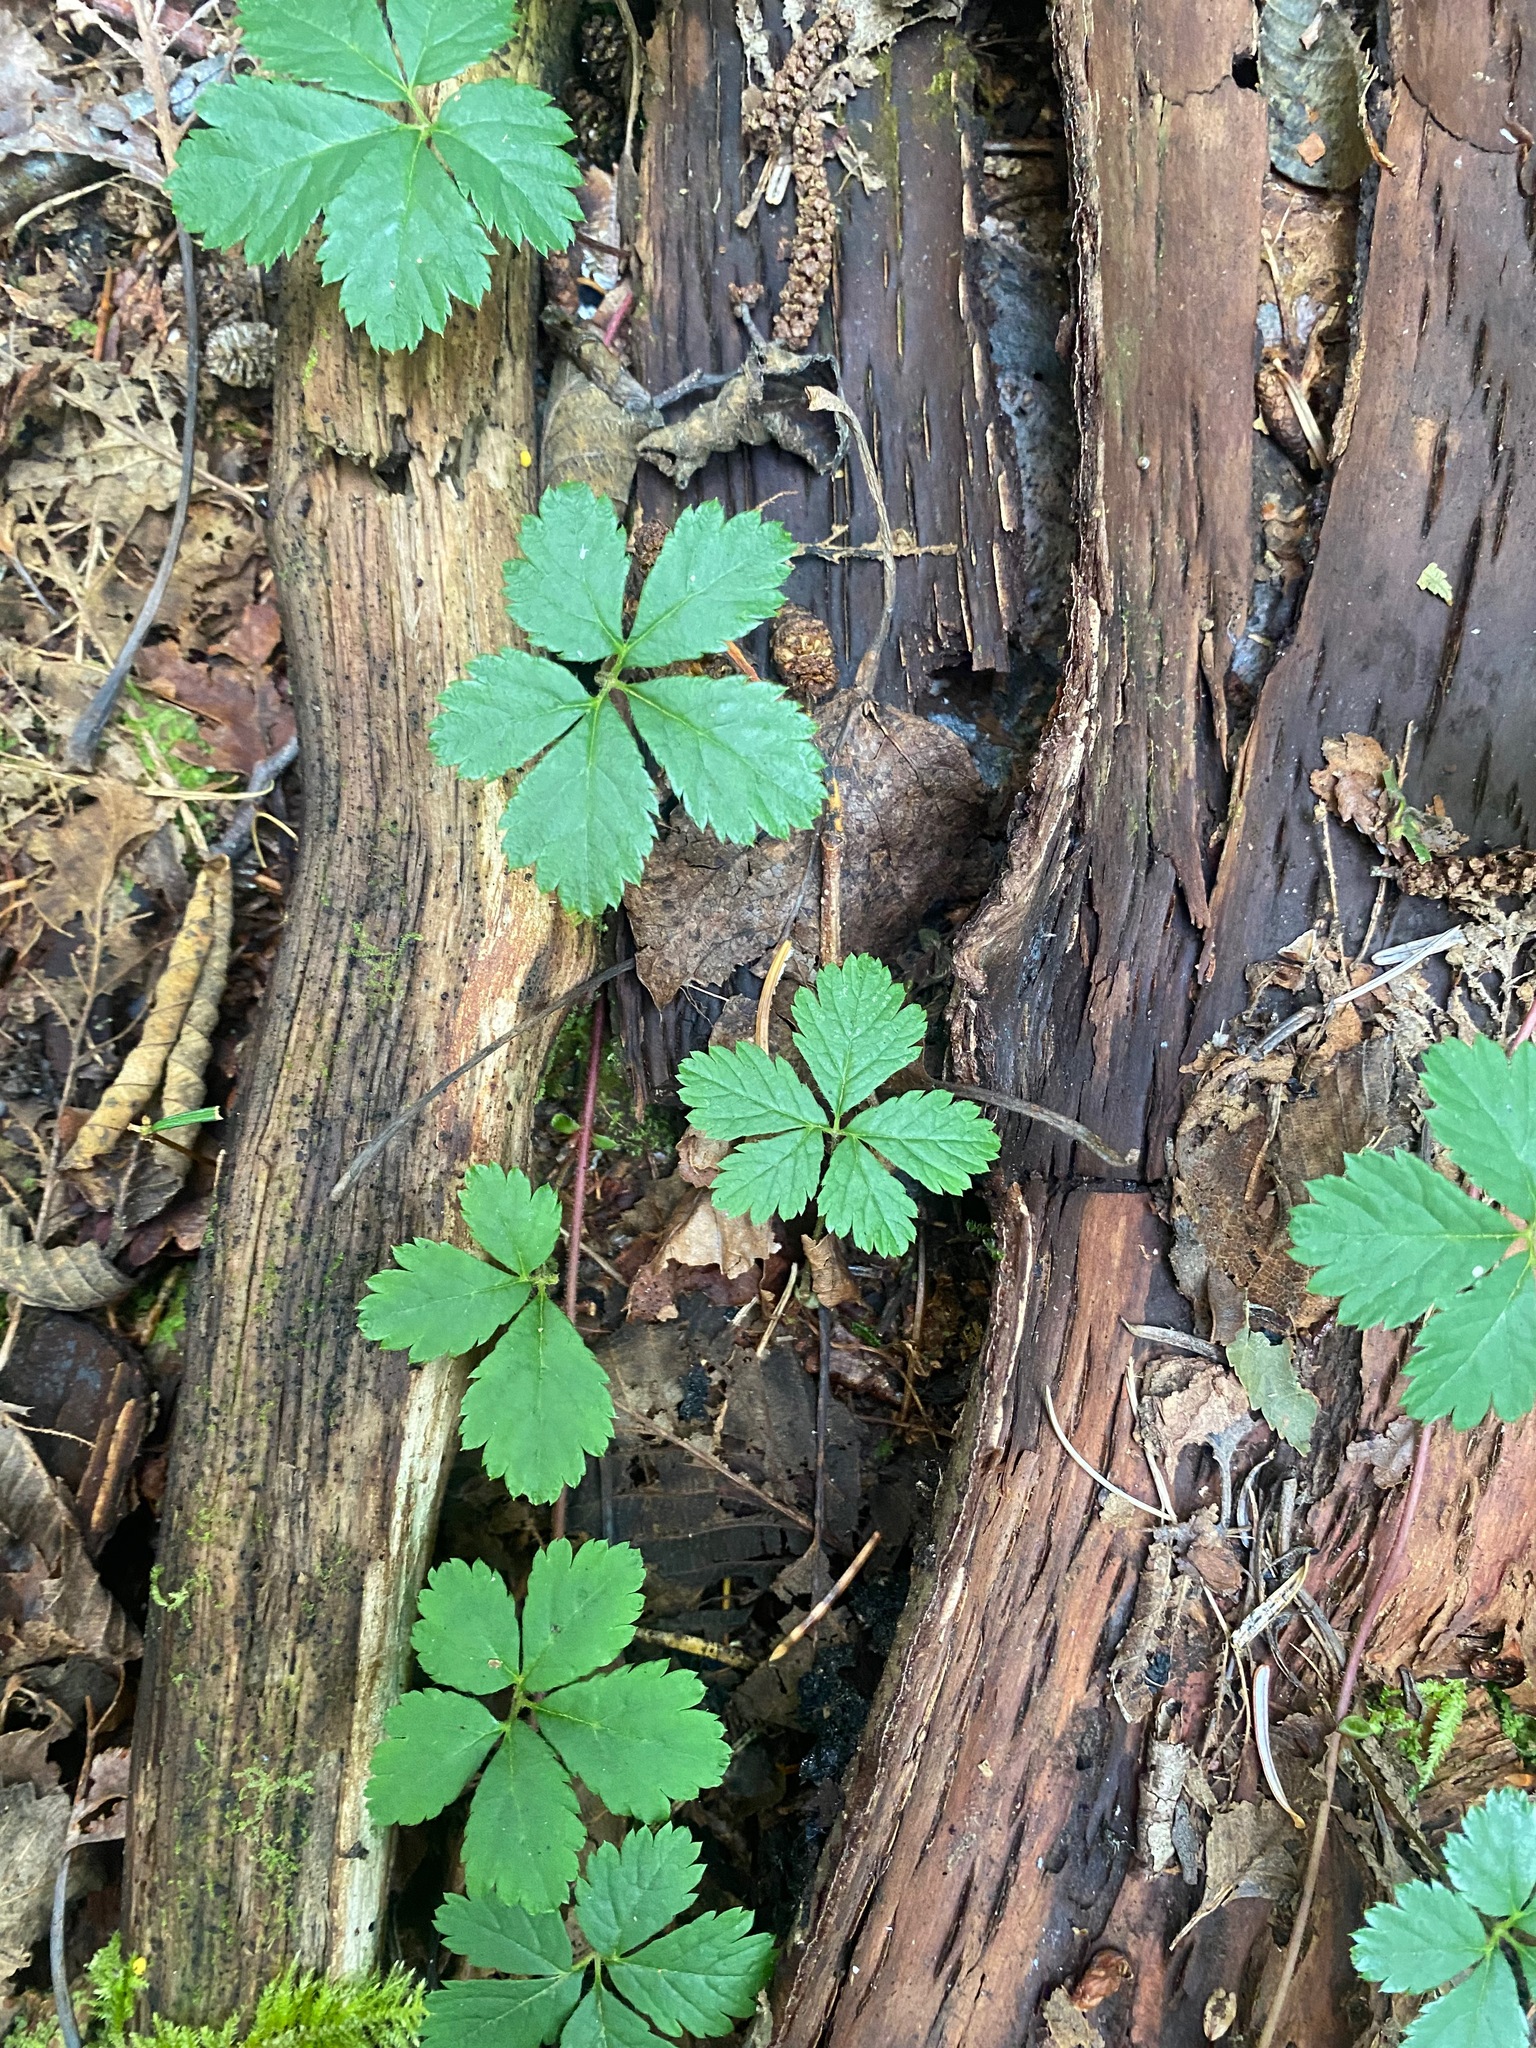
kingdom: Plantae
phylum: Tracheophyta
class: Magnoliopsida
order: Rosales
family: Rosaceae
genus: Rubus
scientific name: Rubus pedatus
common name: Creeping raspberry
